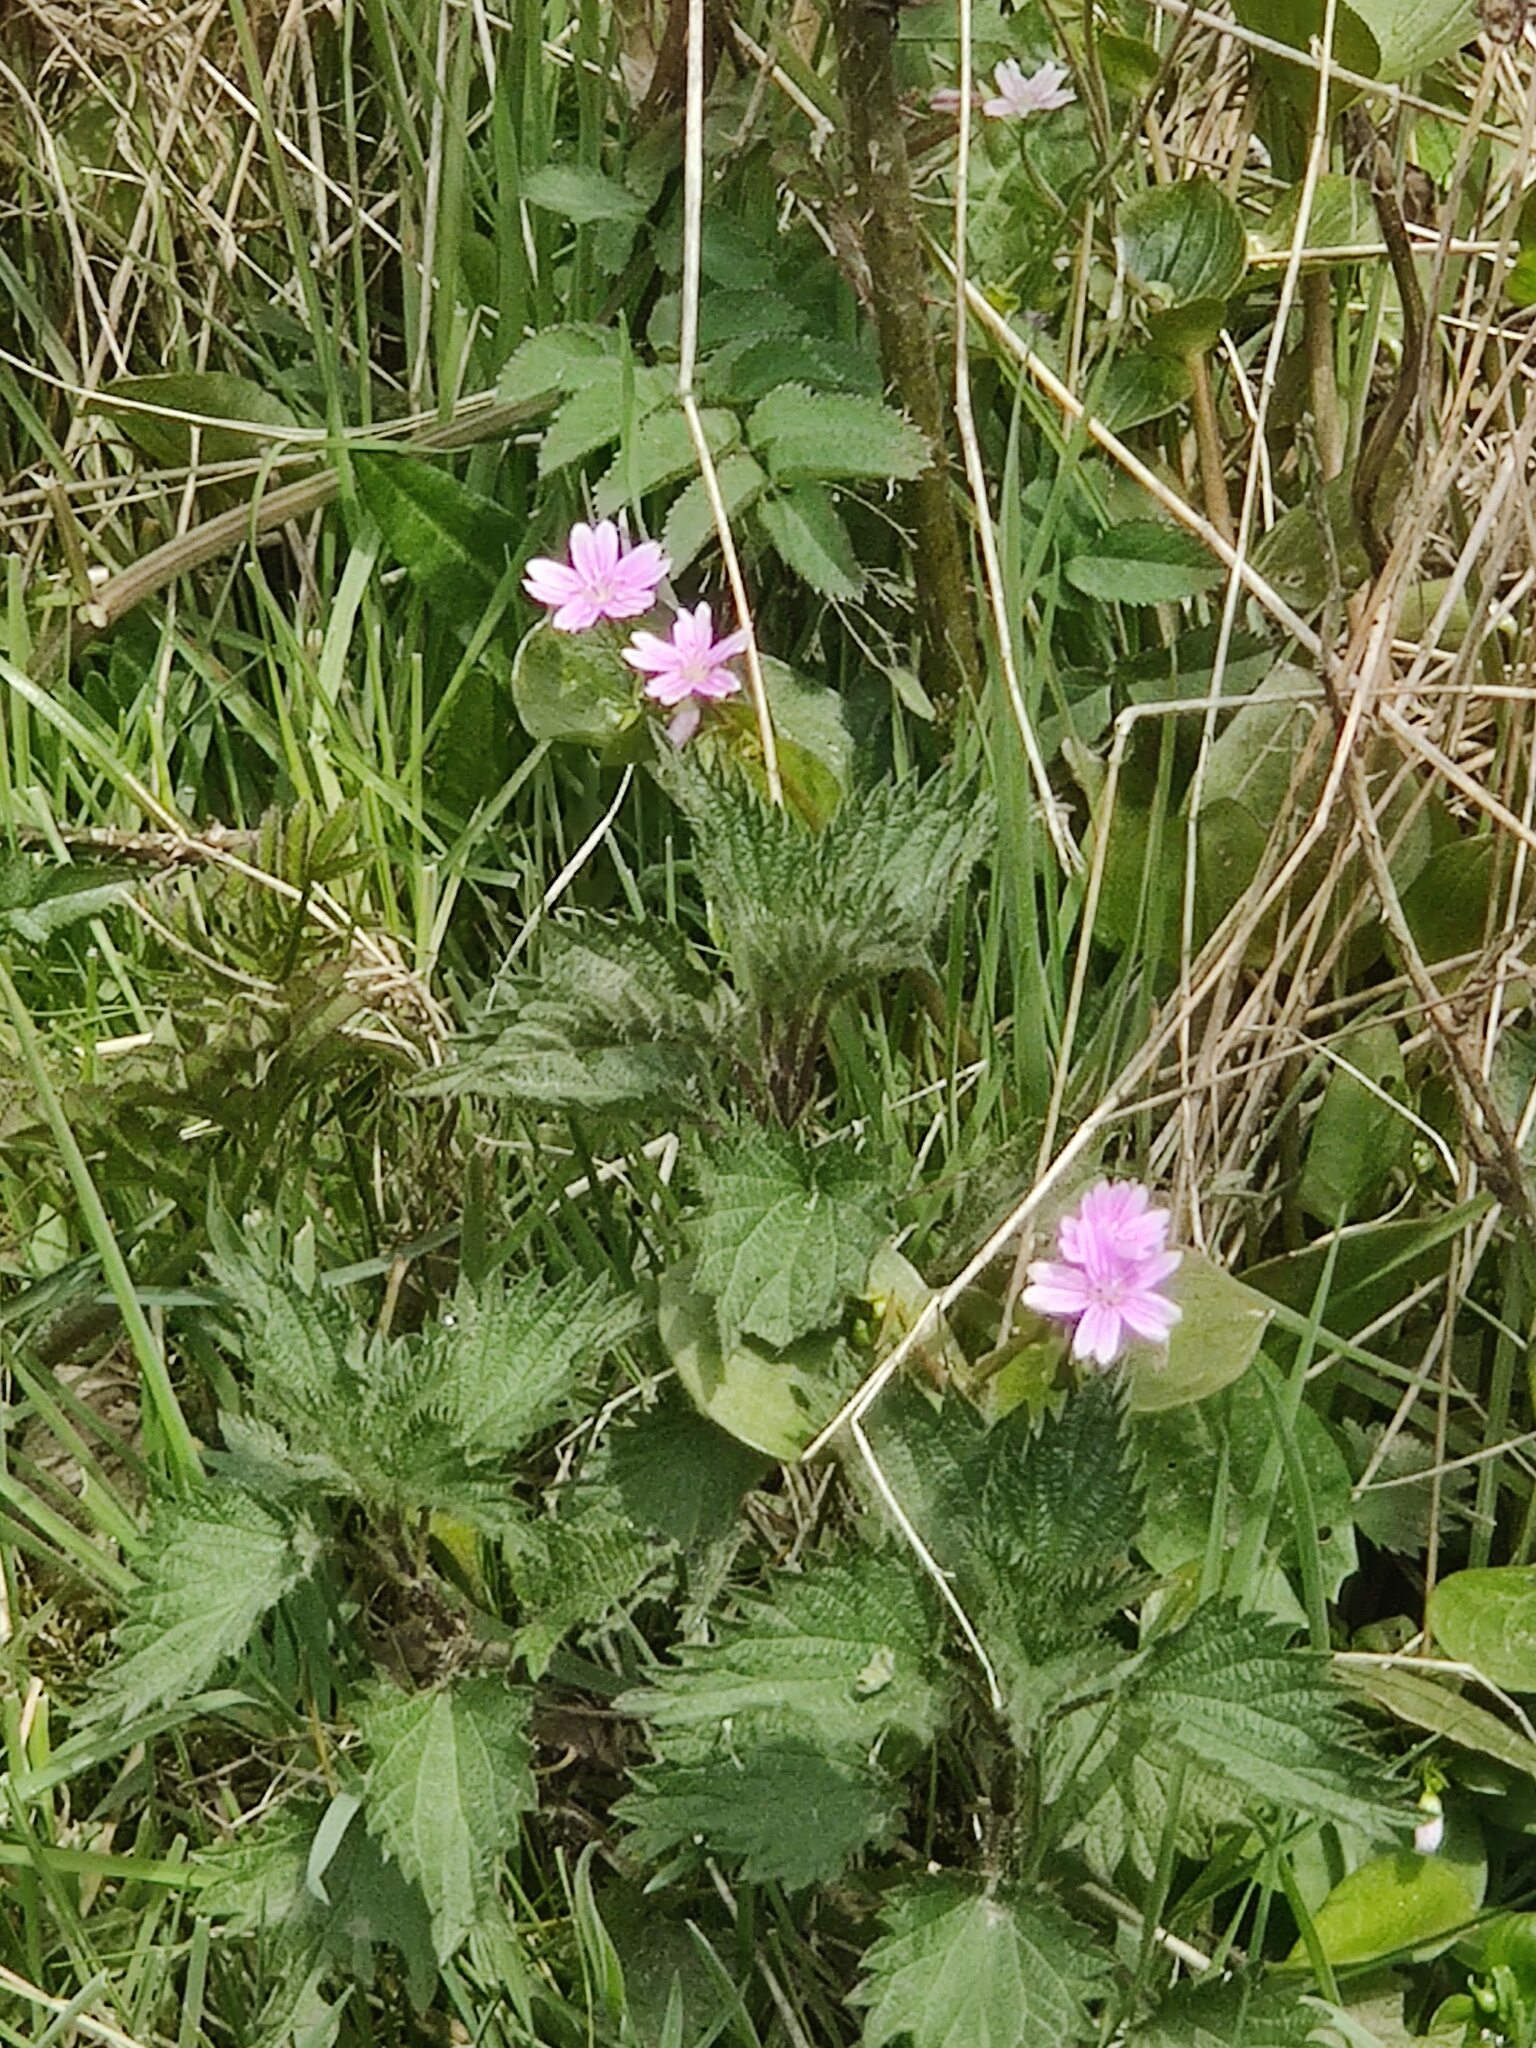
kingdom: Plantae
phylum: Tracheophyta
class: Magnoliopsida
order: Caryophyllales
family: Montiaceae
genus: Claytonia
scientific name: Claytonia sibirica
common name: Pink purslane
